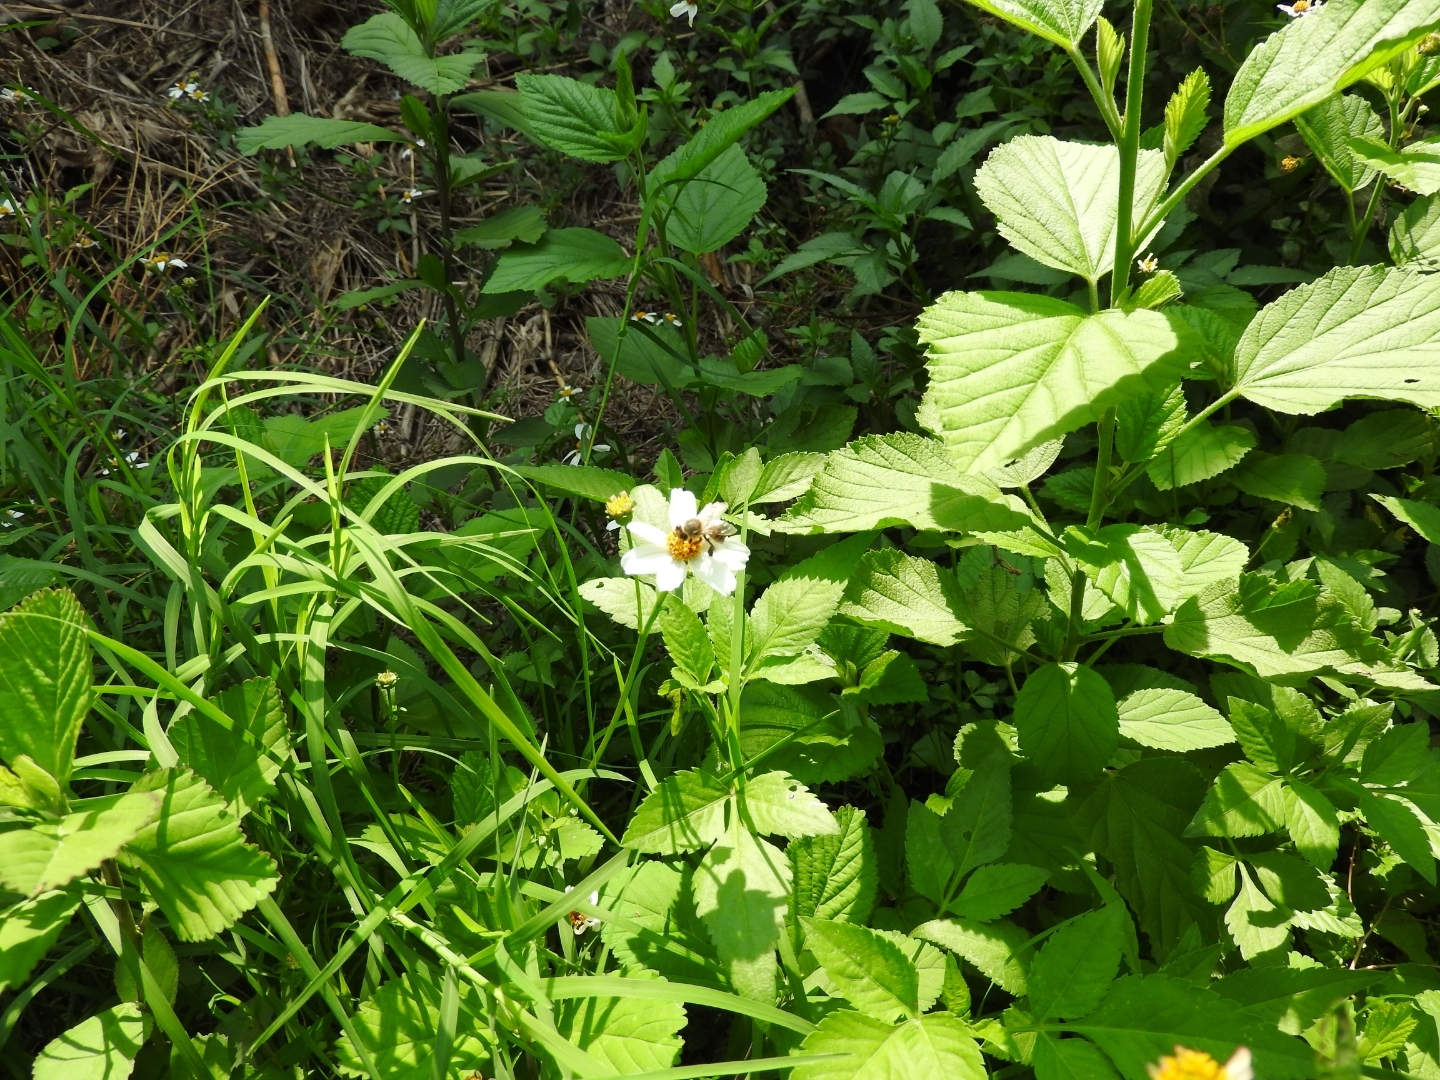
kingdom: Animalia
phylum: Arthropoda
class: Insecta
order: Hymenoptera
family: Apidae
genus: Apis
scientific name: Apis mellifera
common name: Honey bee
